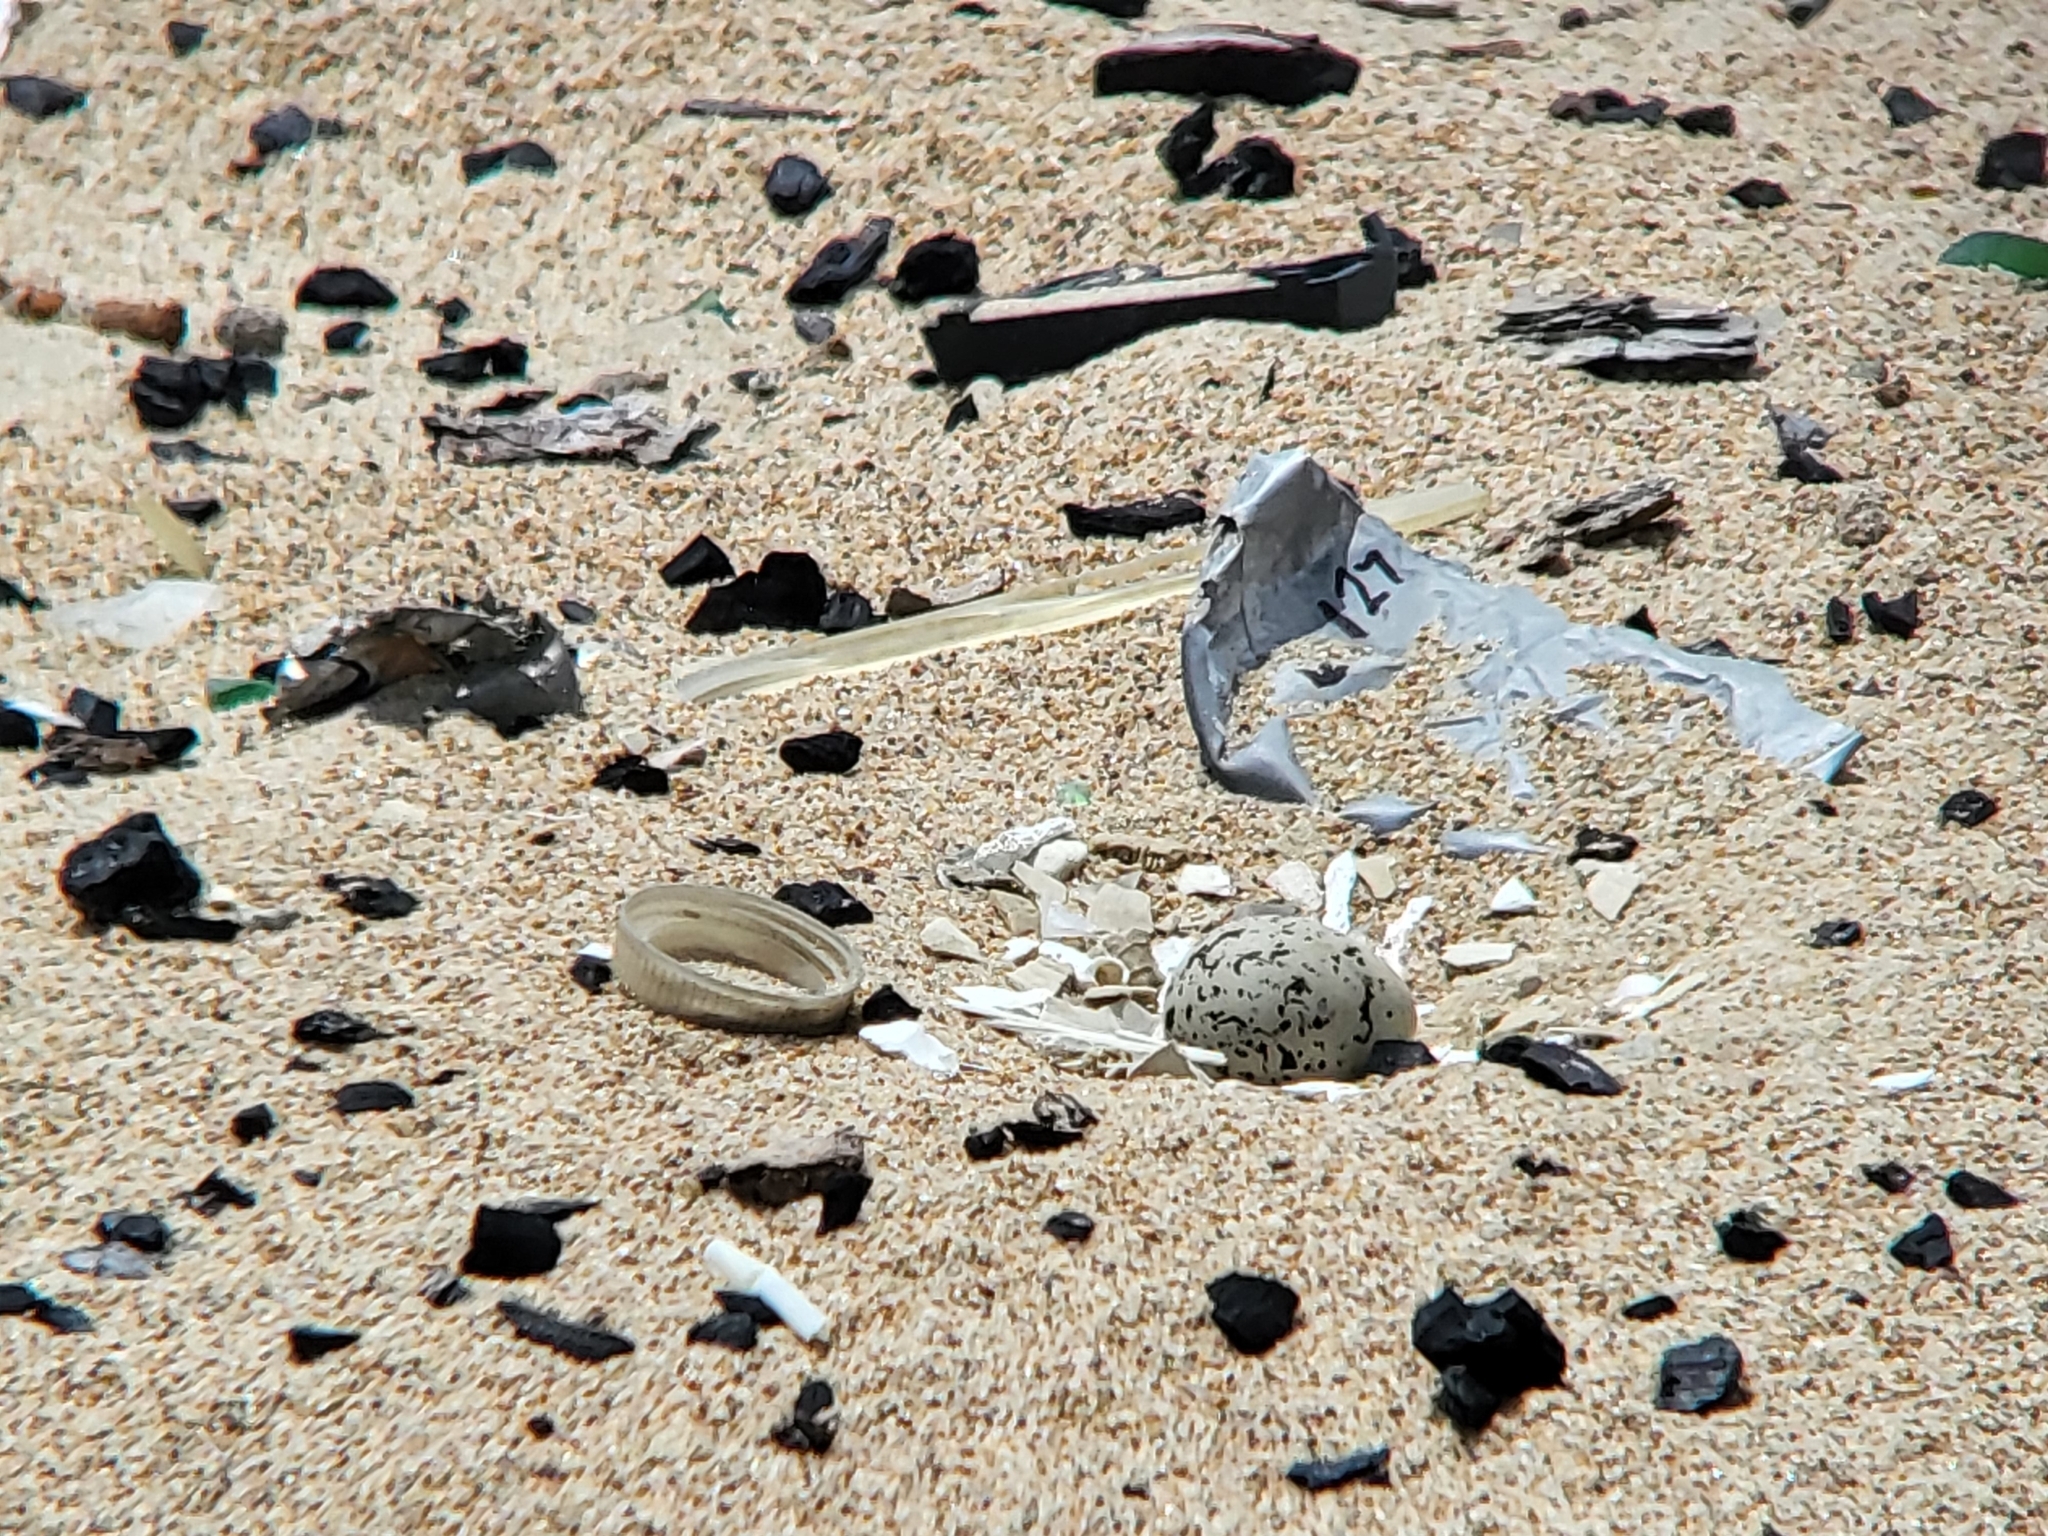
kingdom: Animalia
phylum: Chordata
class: Aves
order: Charadriiformes
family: Charadriidae
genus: Anarhynchus
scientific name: Anarhynchus
